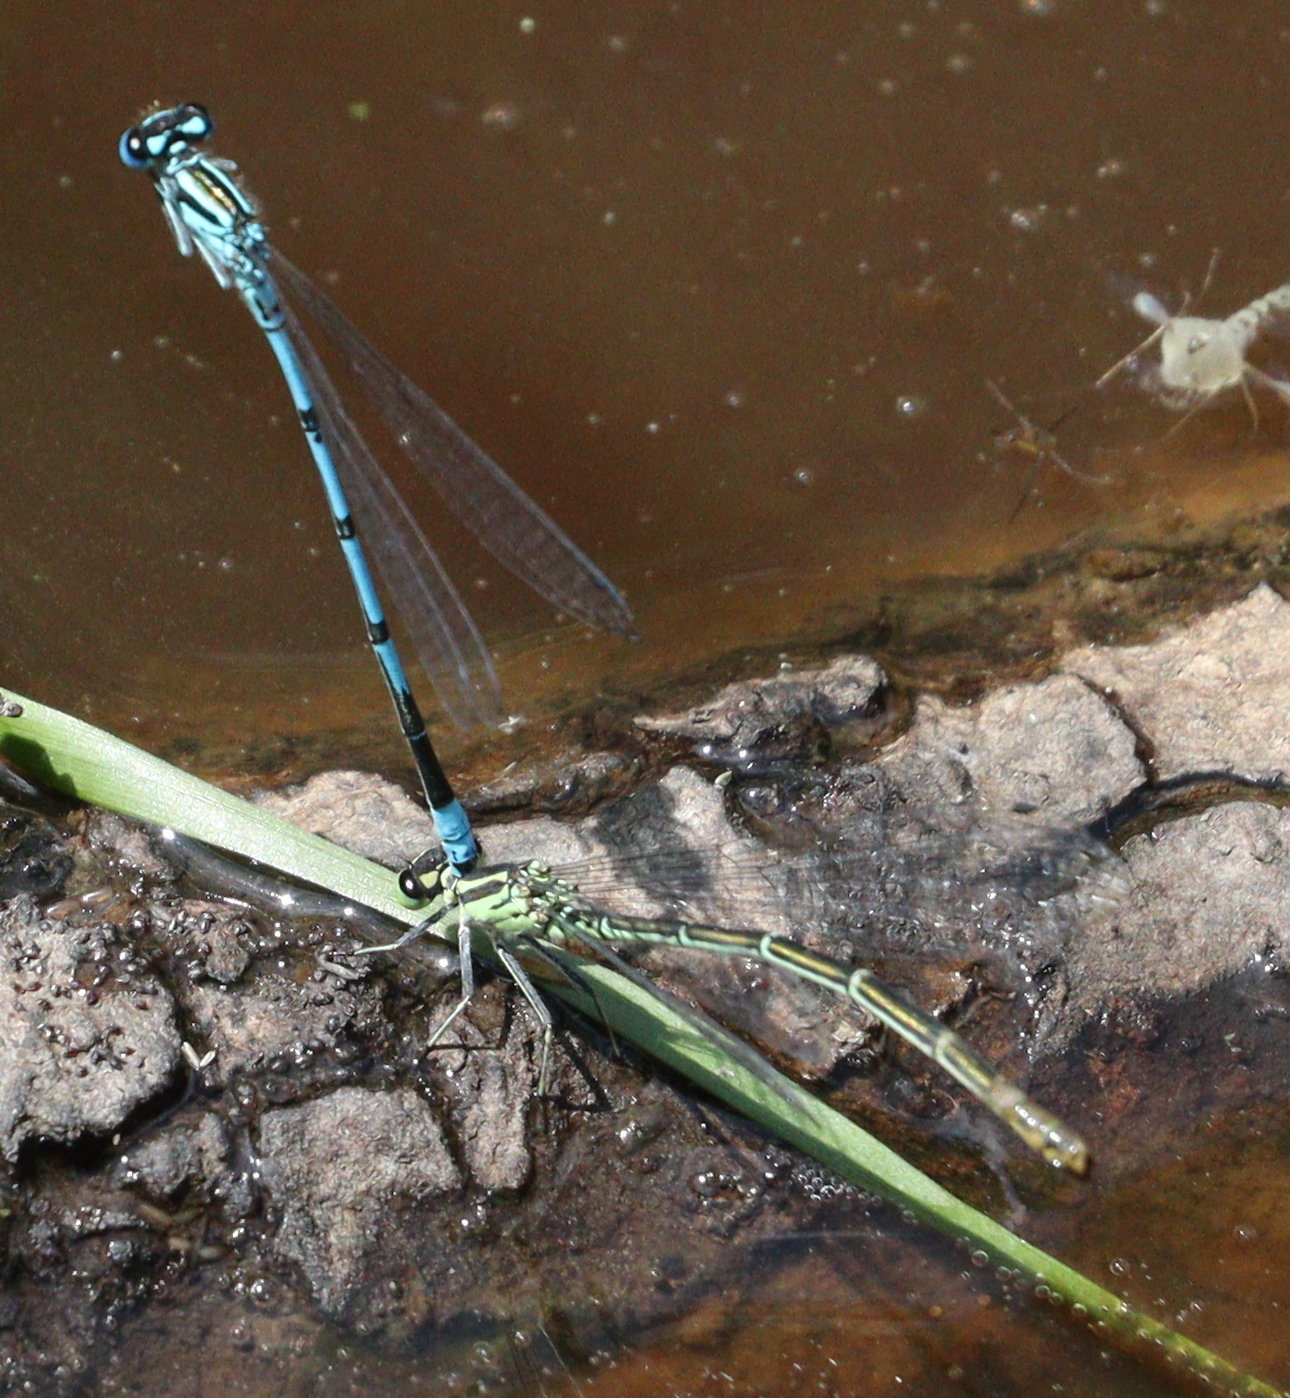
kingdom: Animalia
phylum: Arthropoda
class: Insecta
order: Odonata
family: Coenagrionidae
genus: Coenagrion
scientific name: Coenagrion puella
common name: Azure damselfly
